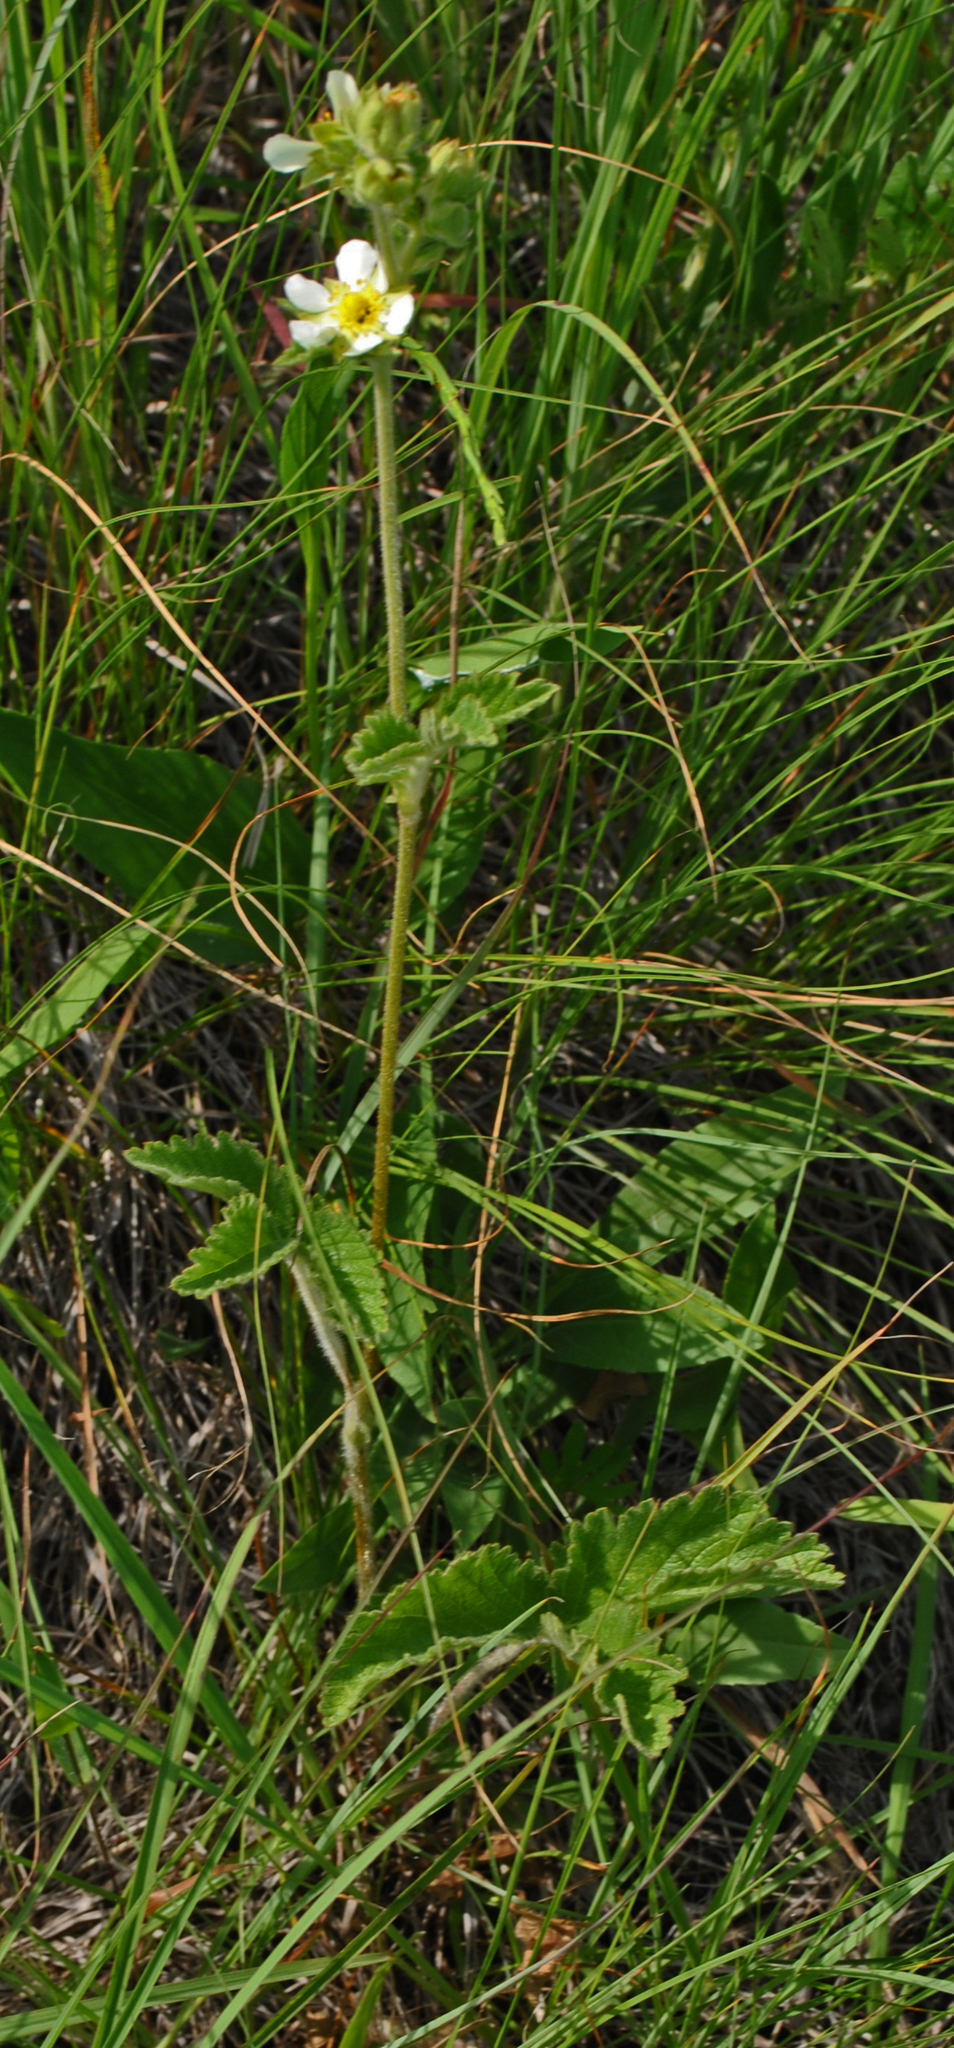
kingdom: Plantae
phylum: Tracheophyta
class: Magnoliopsida
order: Rosales
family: Rosaceae
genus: Drymocallis
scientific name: Drymocallis arguta
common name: Tall cinquefoil
